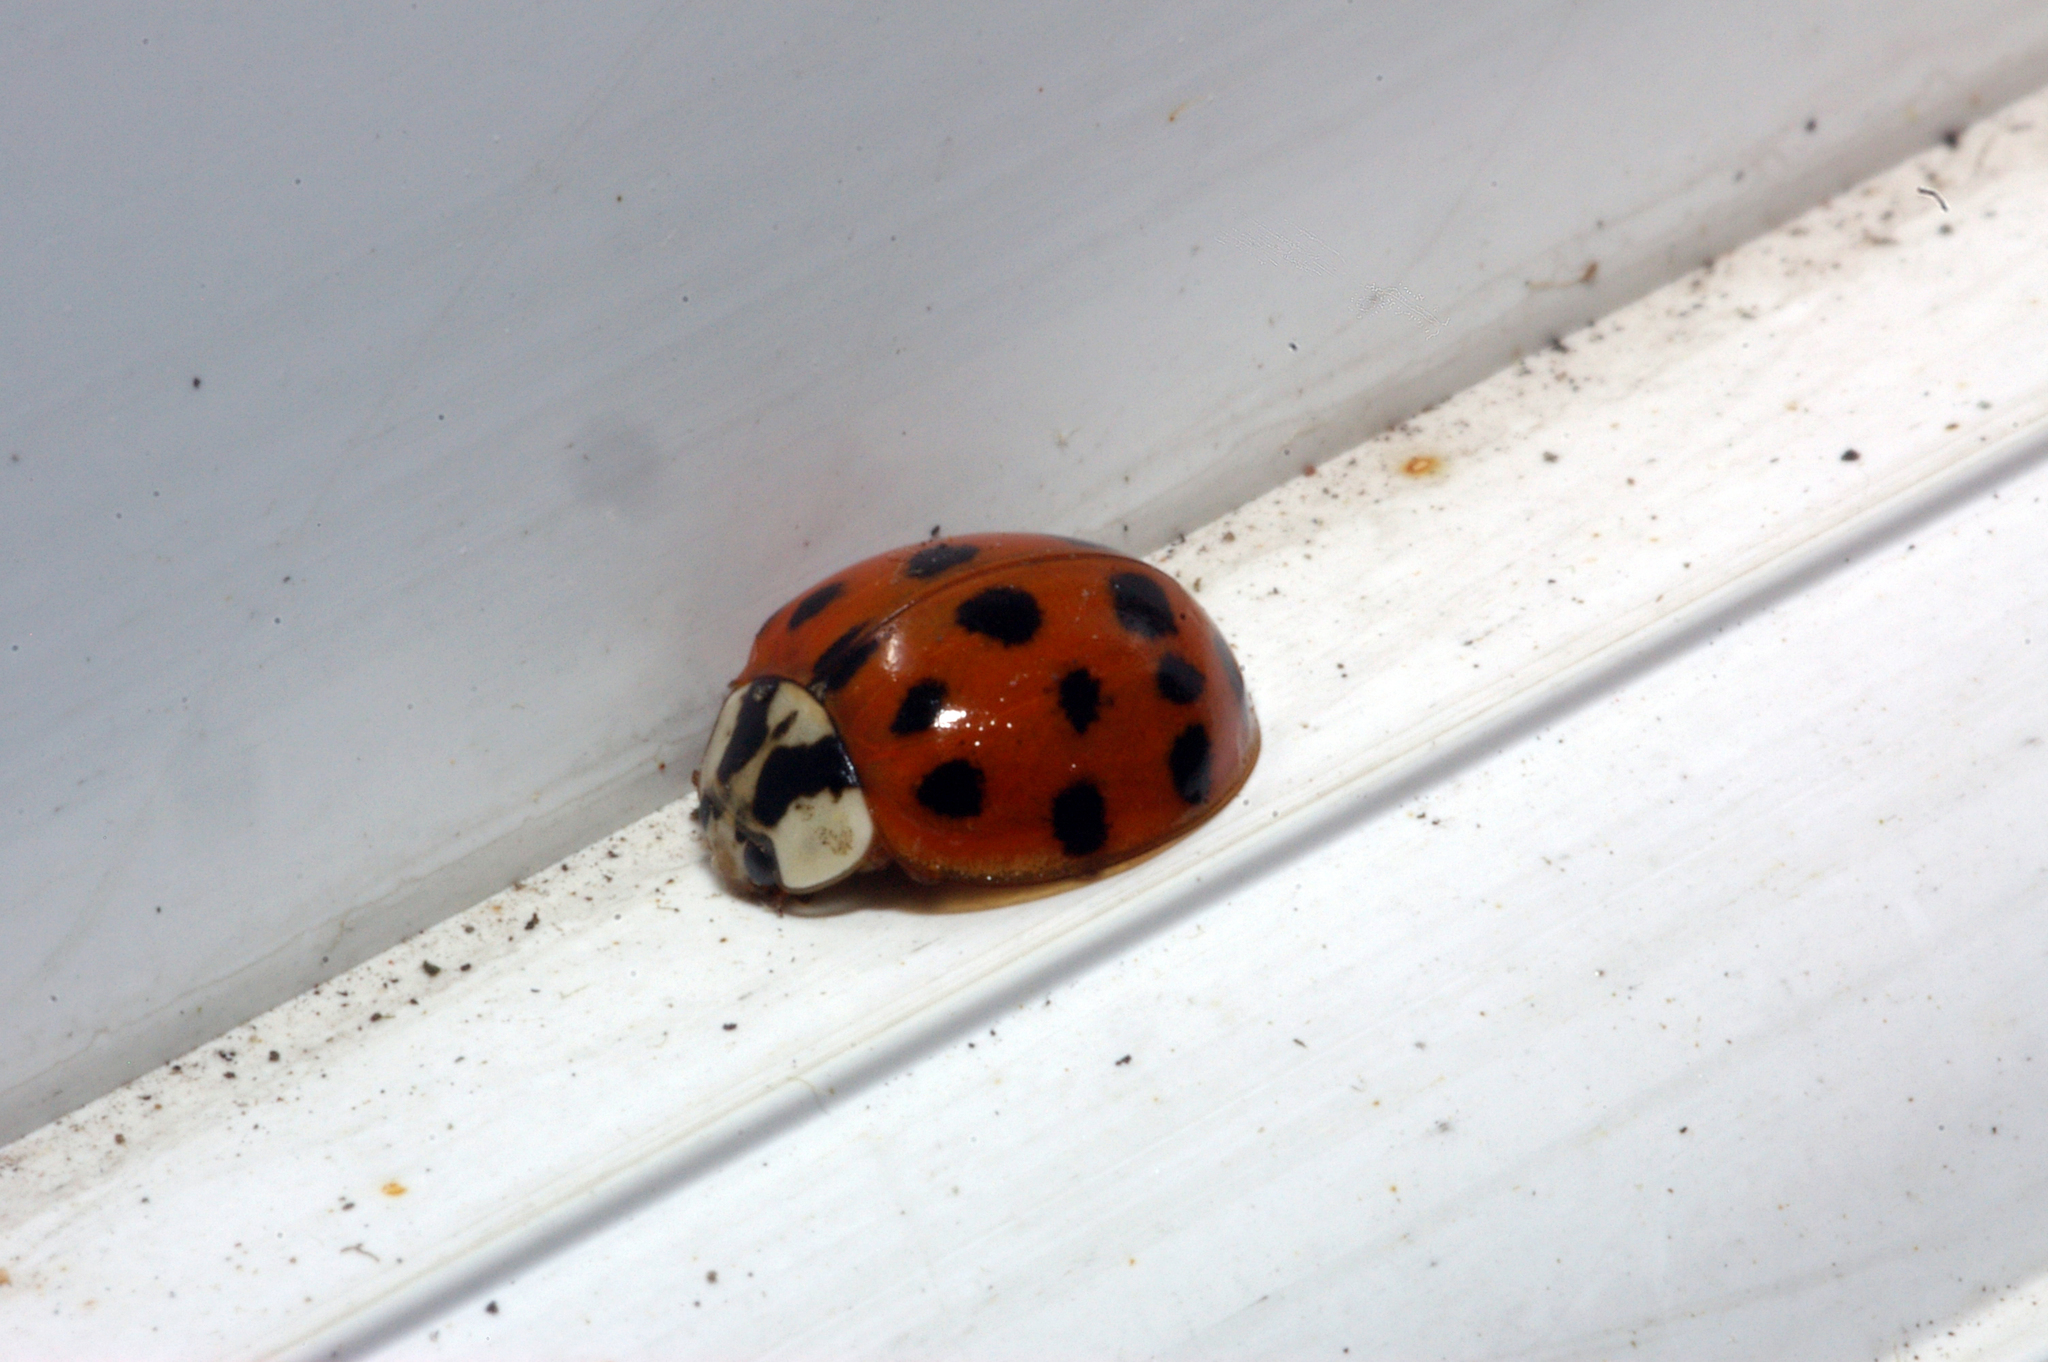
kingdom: Animalia
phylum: Arthropoda
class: Insecta
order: Coleoptera
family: Coccinellidae
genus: Harmonia
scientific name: Harmonia axyridis
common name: Harlequin ladybird
